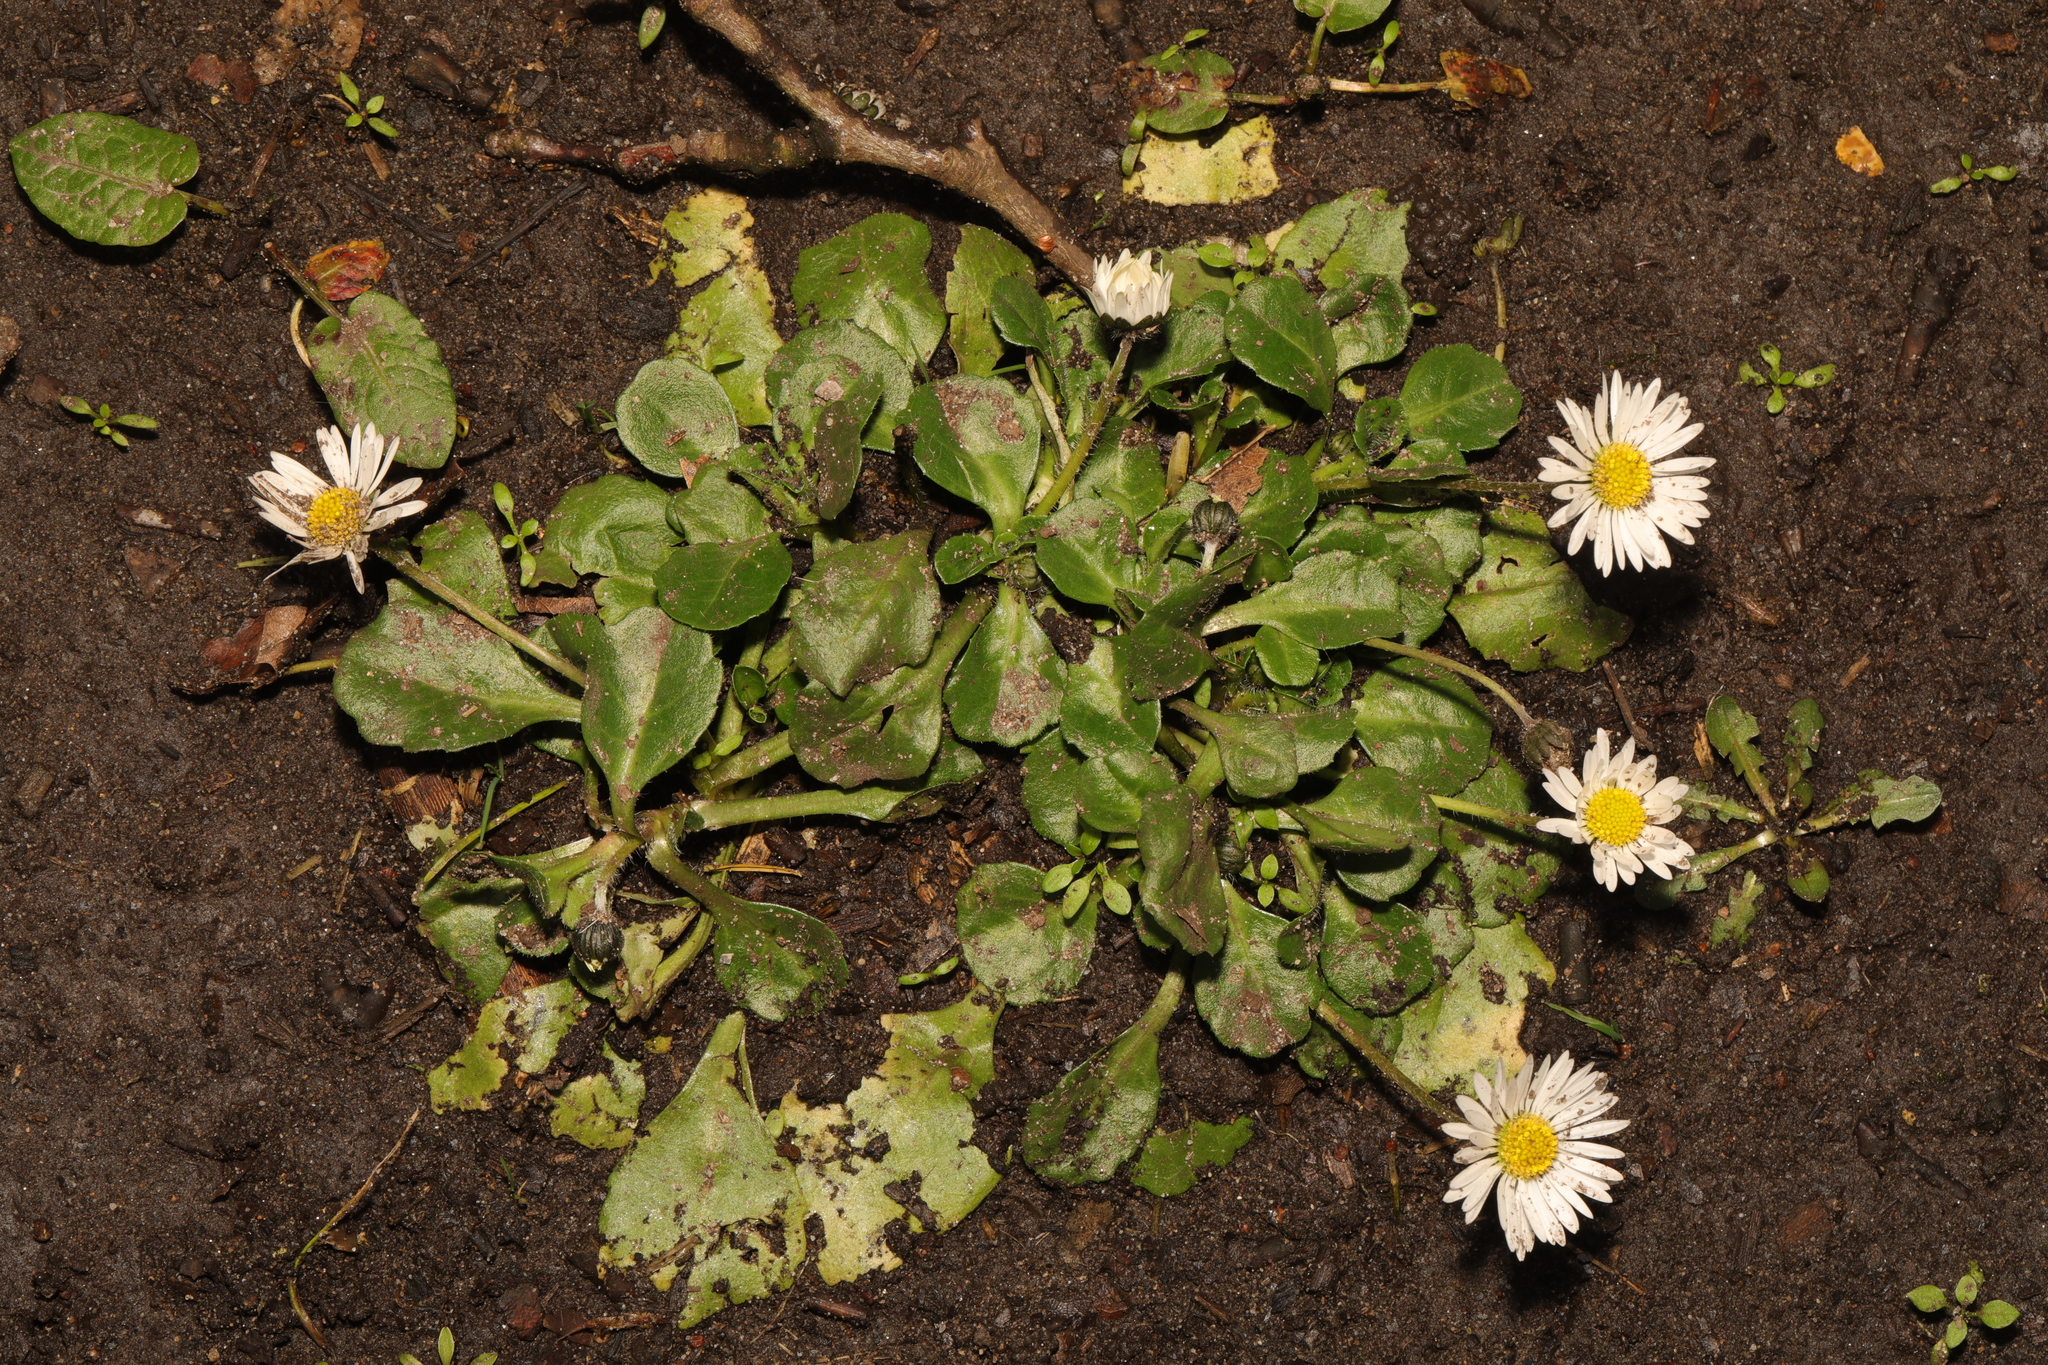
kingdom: Plantae
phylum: Tracheophyta
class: Magnoliopsida
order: Asterales
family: Asteraceae
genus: Bellis
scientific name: Bellis perennis
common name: Lawndaisy
